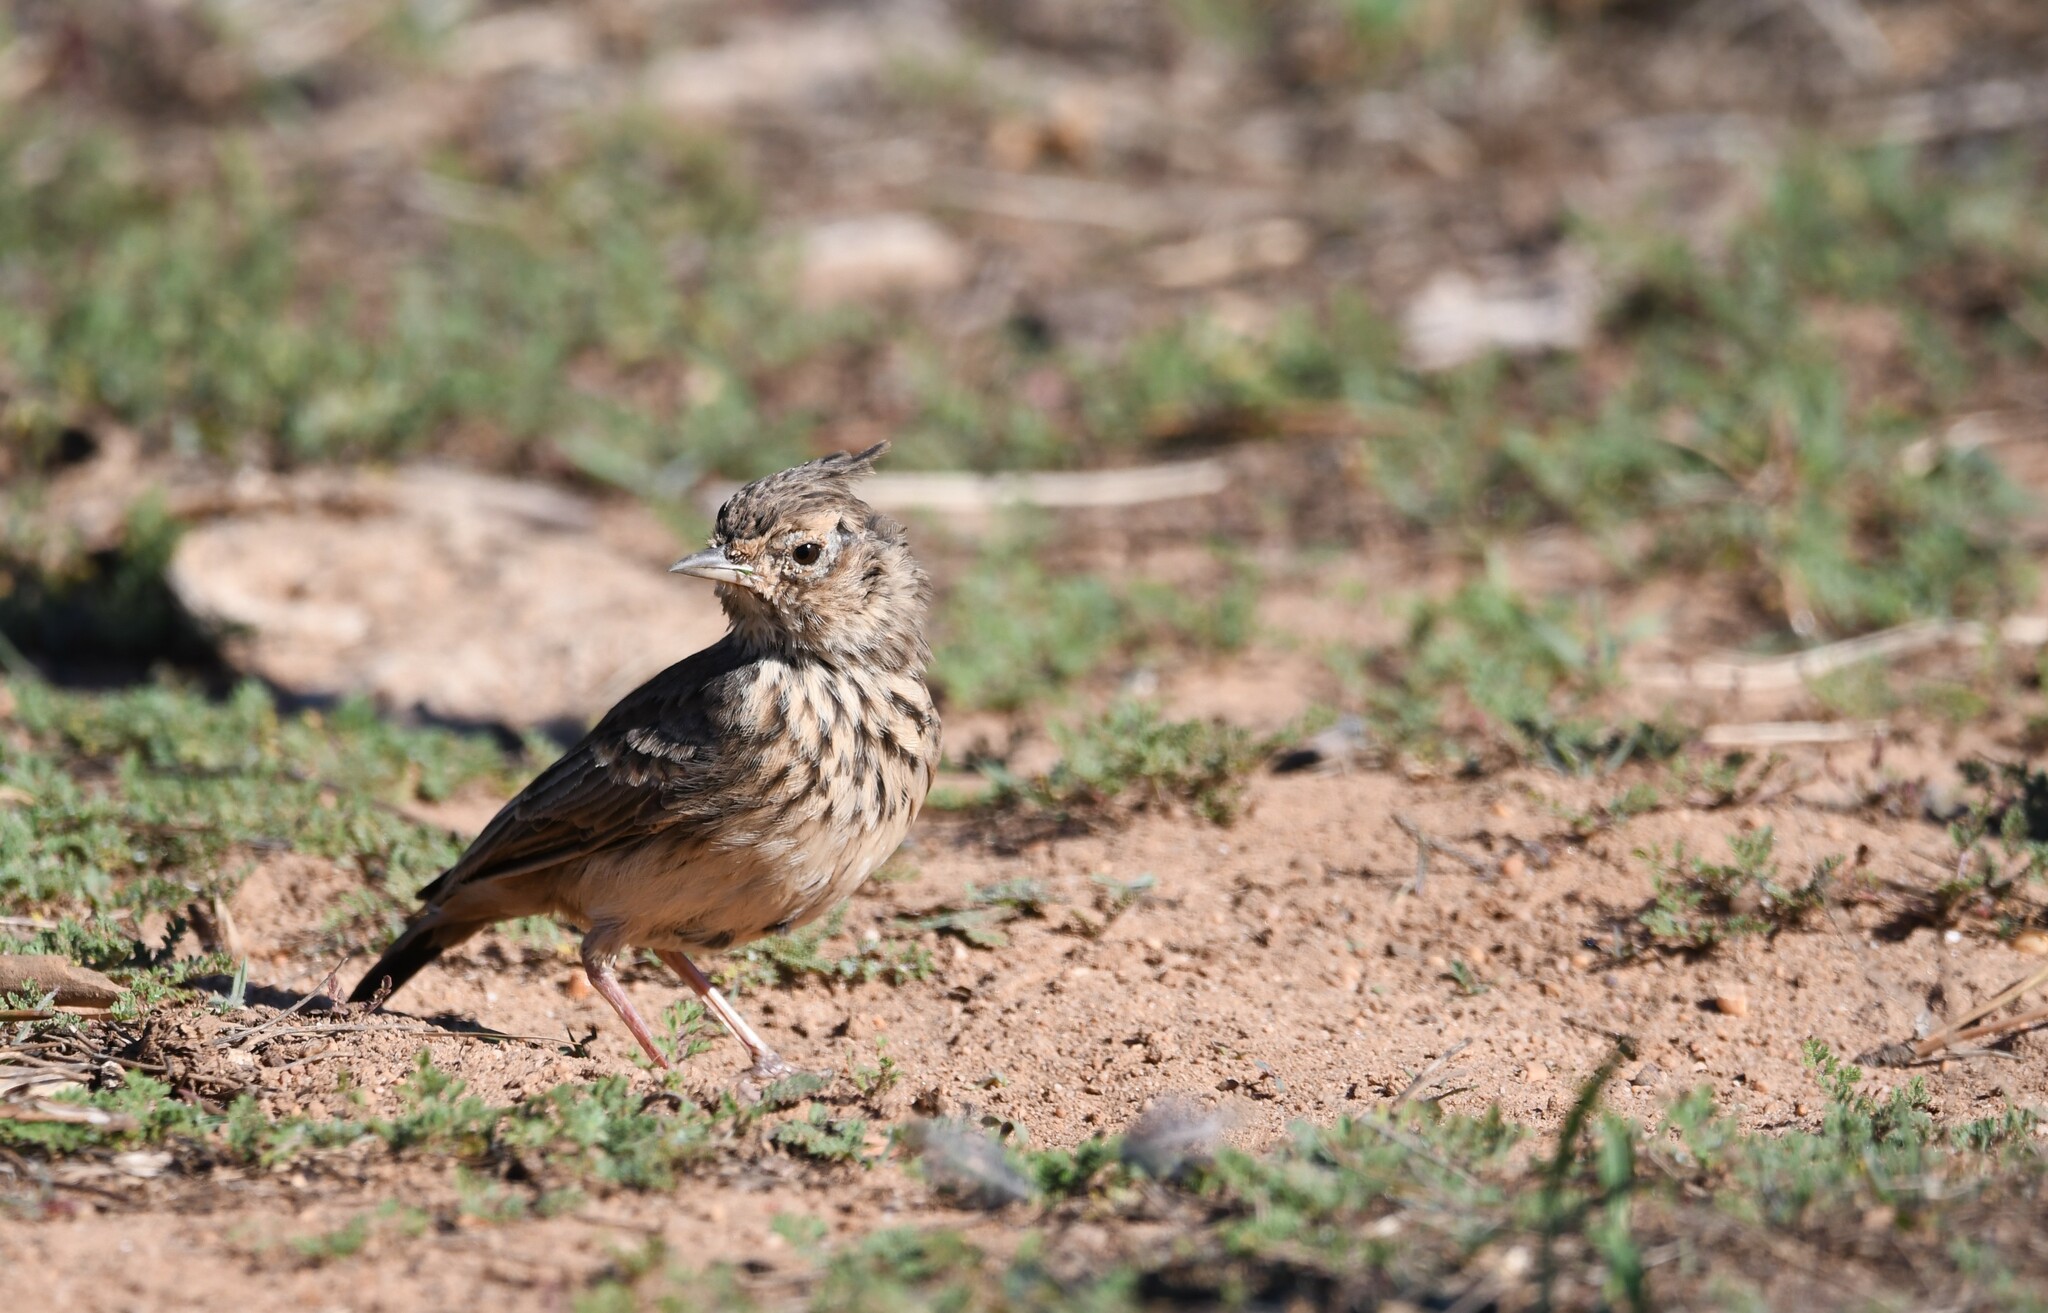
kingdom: Animalia
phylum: Chordata
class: Aves
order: Passeriformes
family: Alaudidae
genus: Galerida
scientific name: Galerida theklae
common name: Thekla lark
